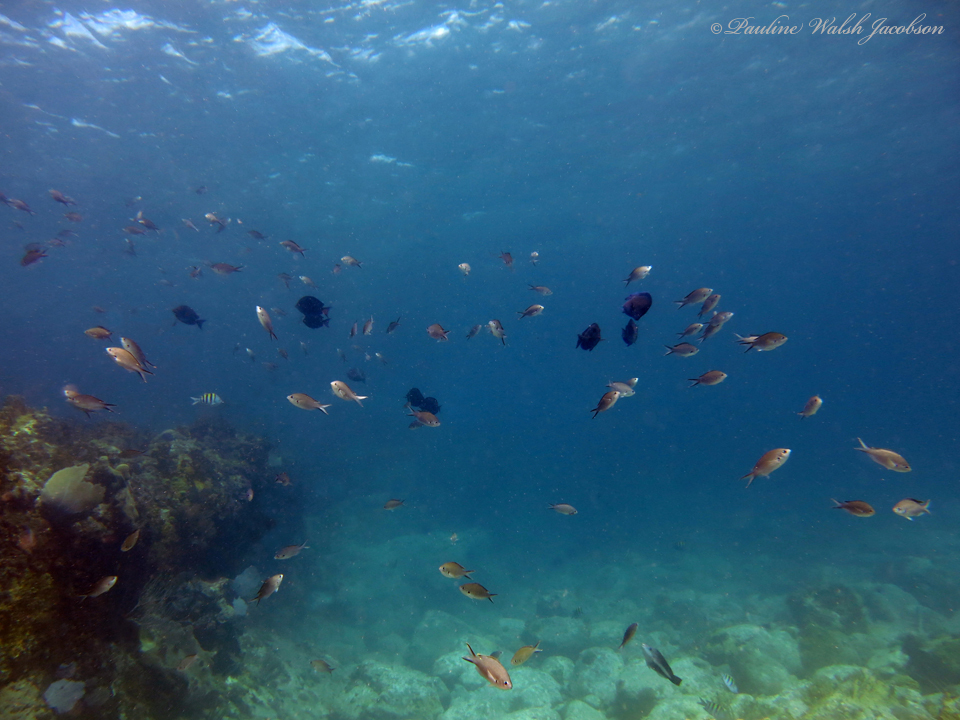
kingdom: Animalia
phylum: Chordata
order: Perciformes
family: Pomacentridae
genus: Chromis
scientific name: Chromis multilineata
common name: Brown chromis
